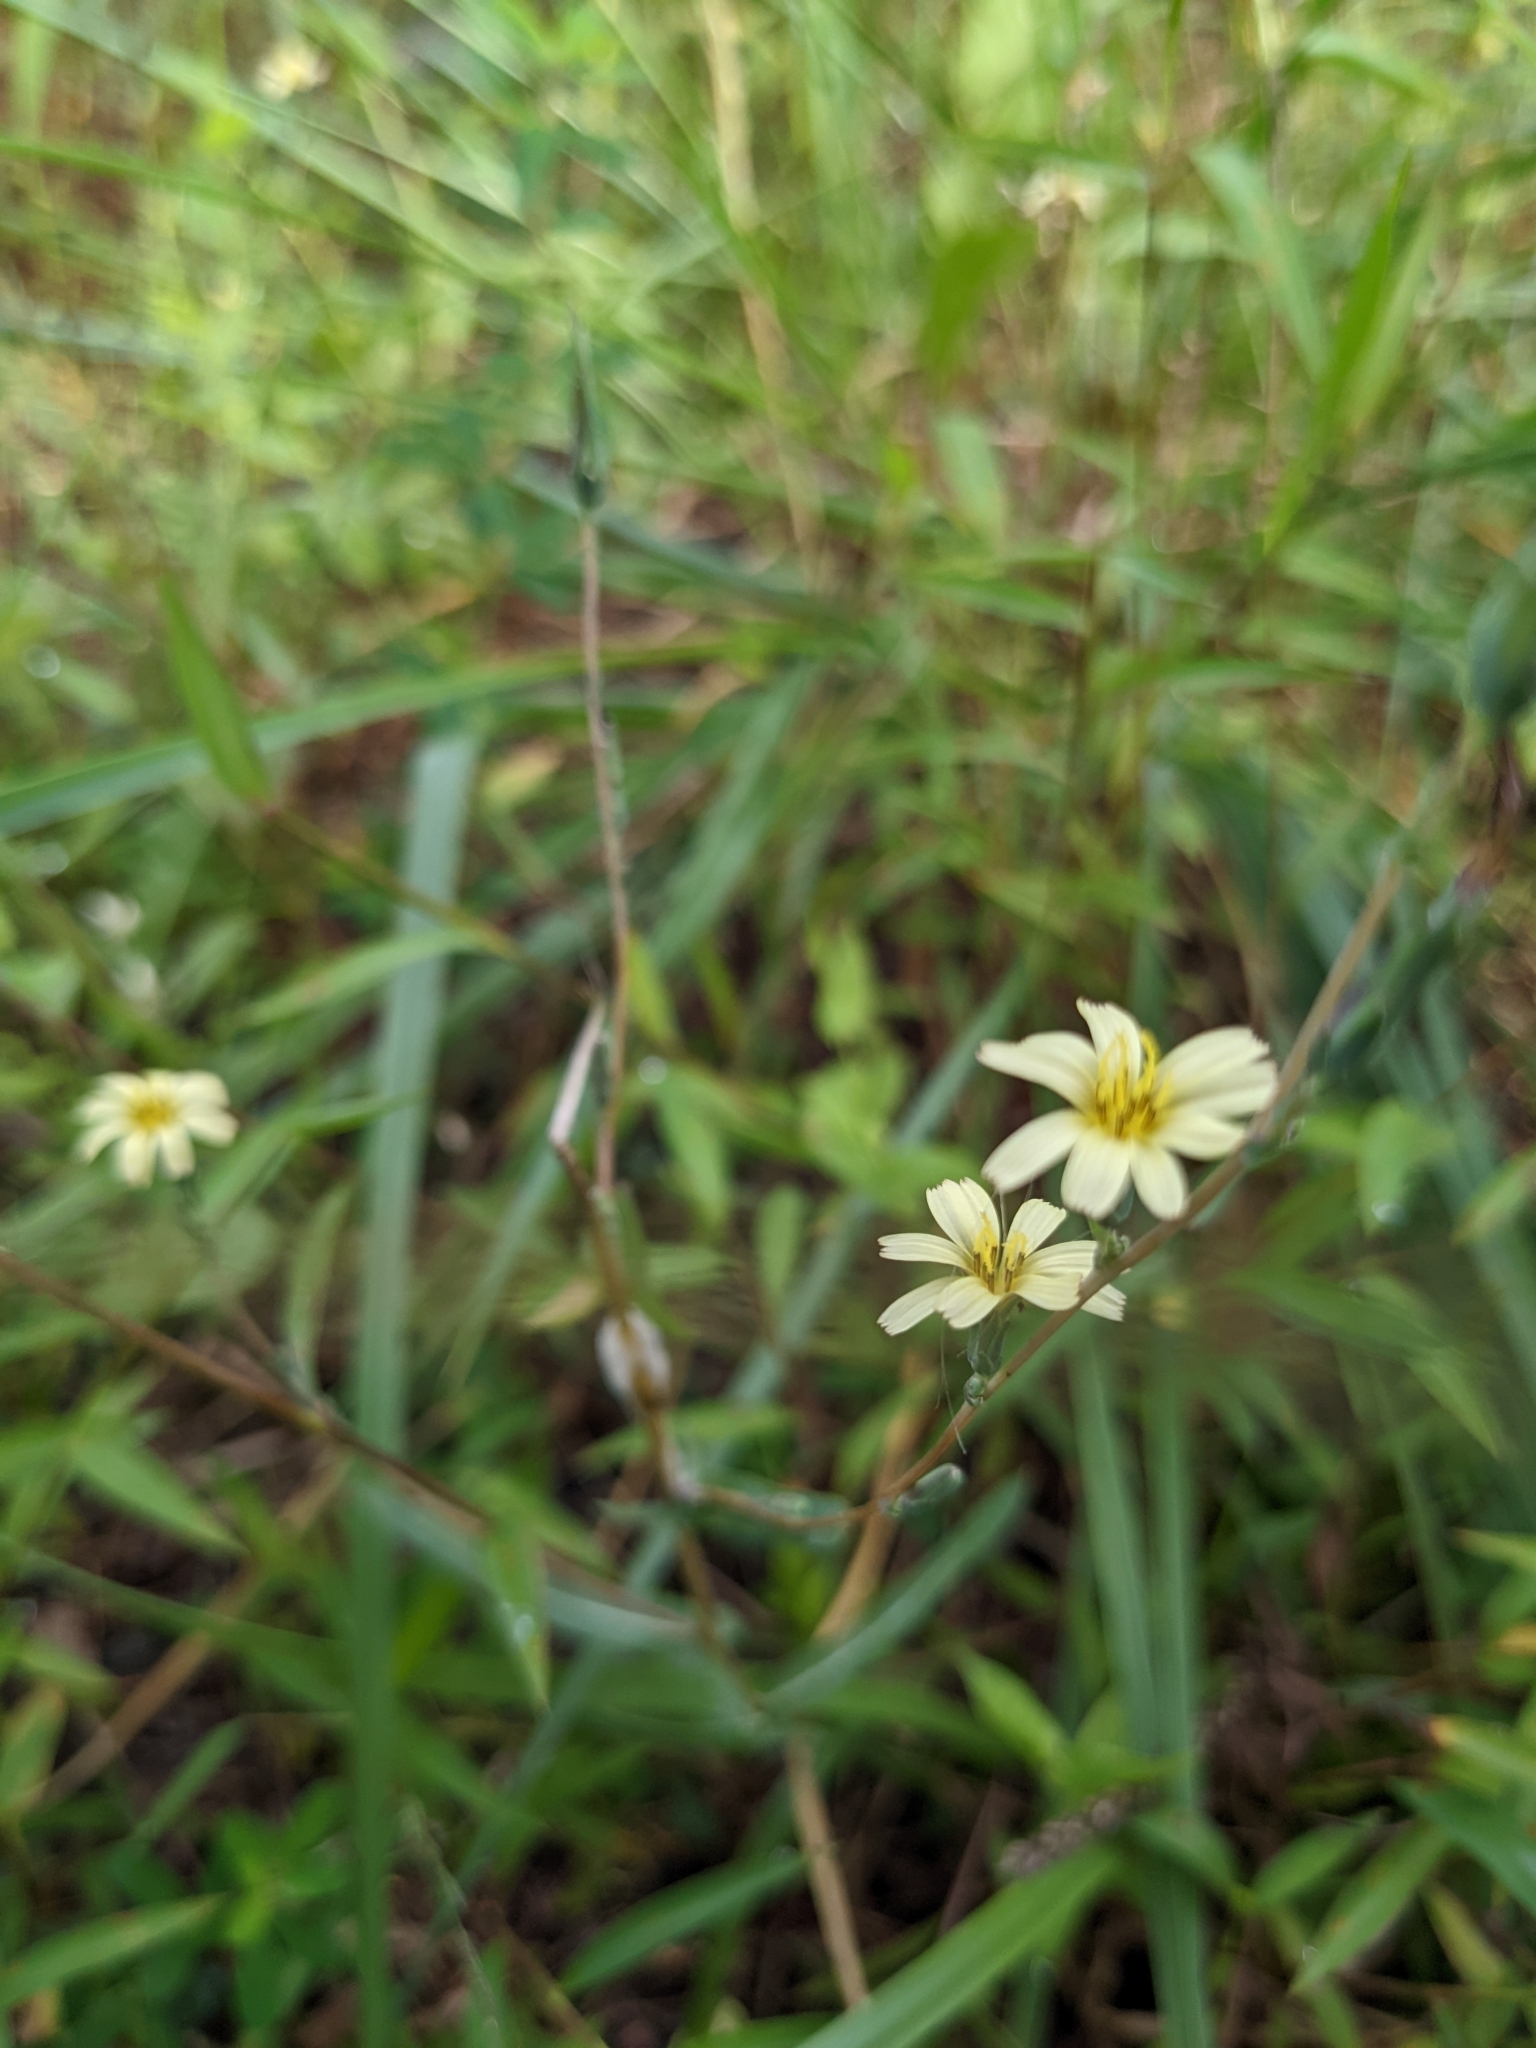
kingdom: Plantae
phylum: Tracheophyta
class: Magnoliopsida
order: Asterales
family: Asteraceae
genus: Lactuca
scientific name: Lactuca saligna
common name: Wild lettuce
